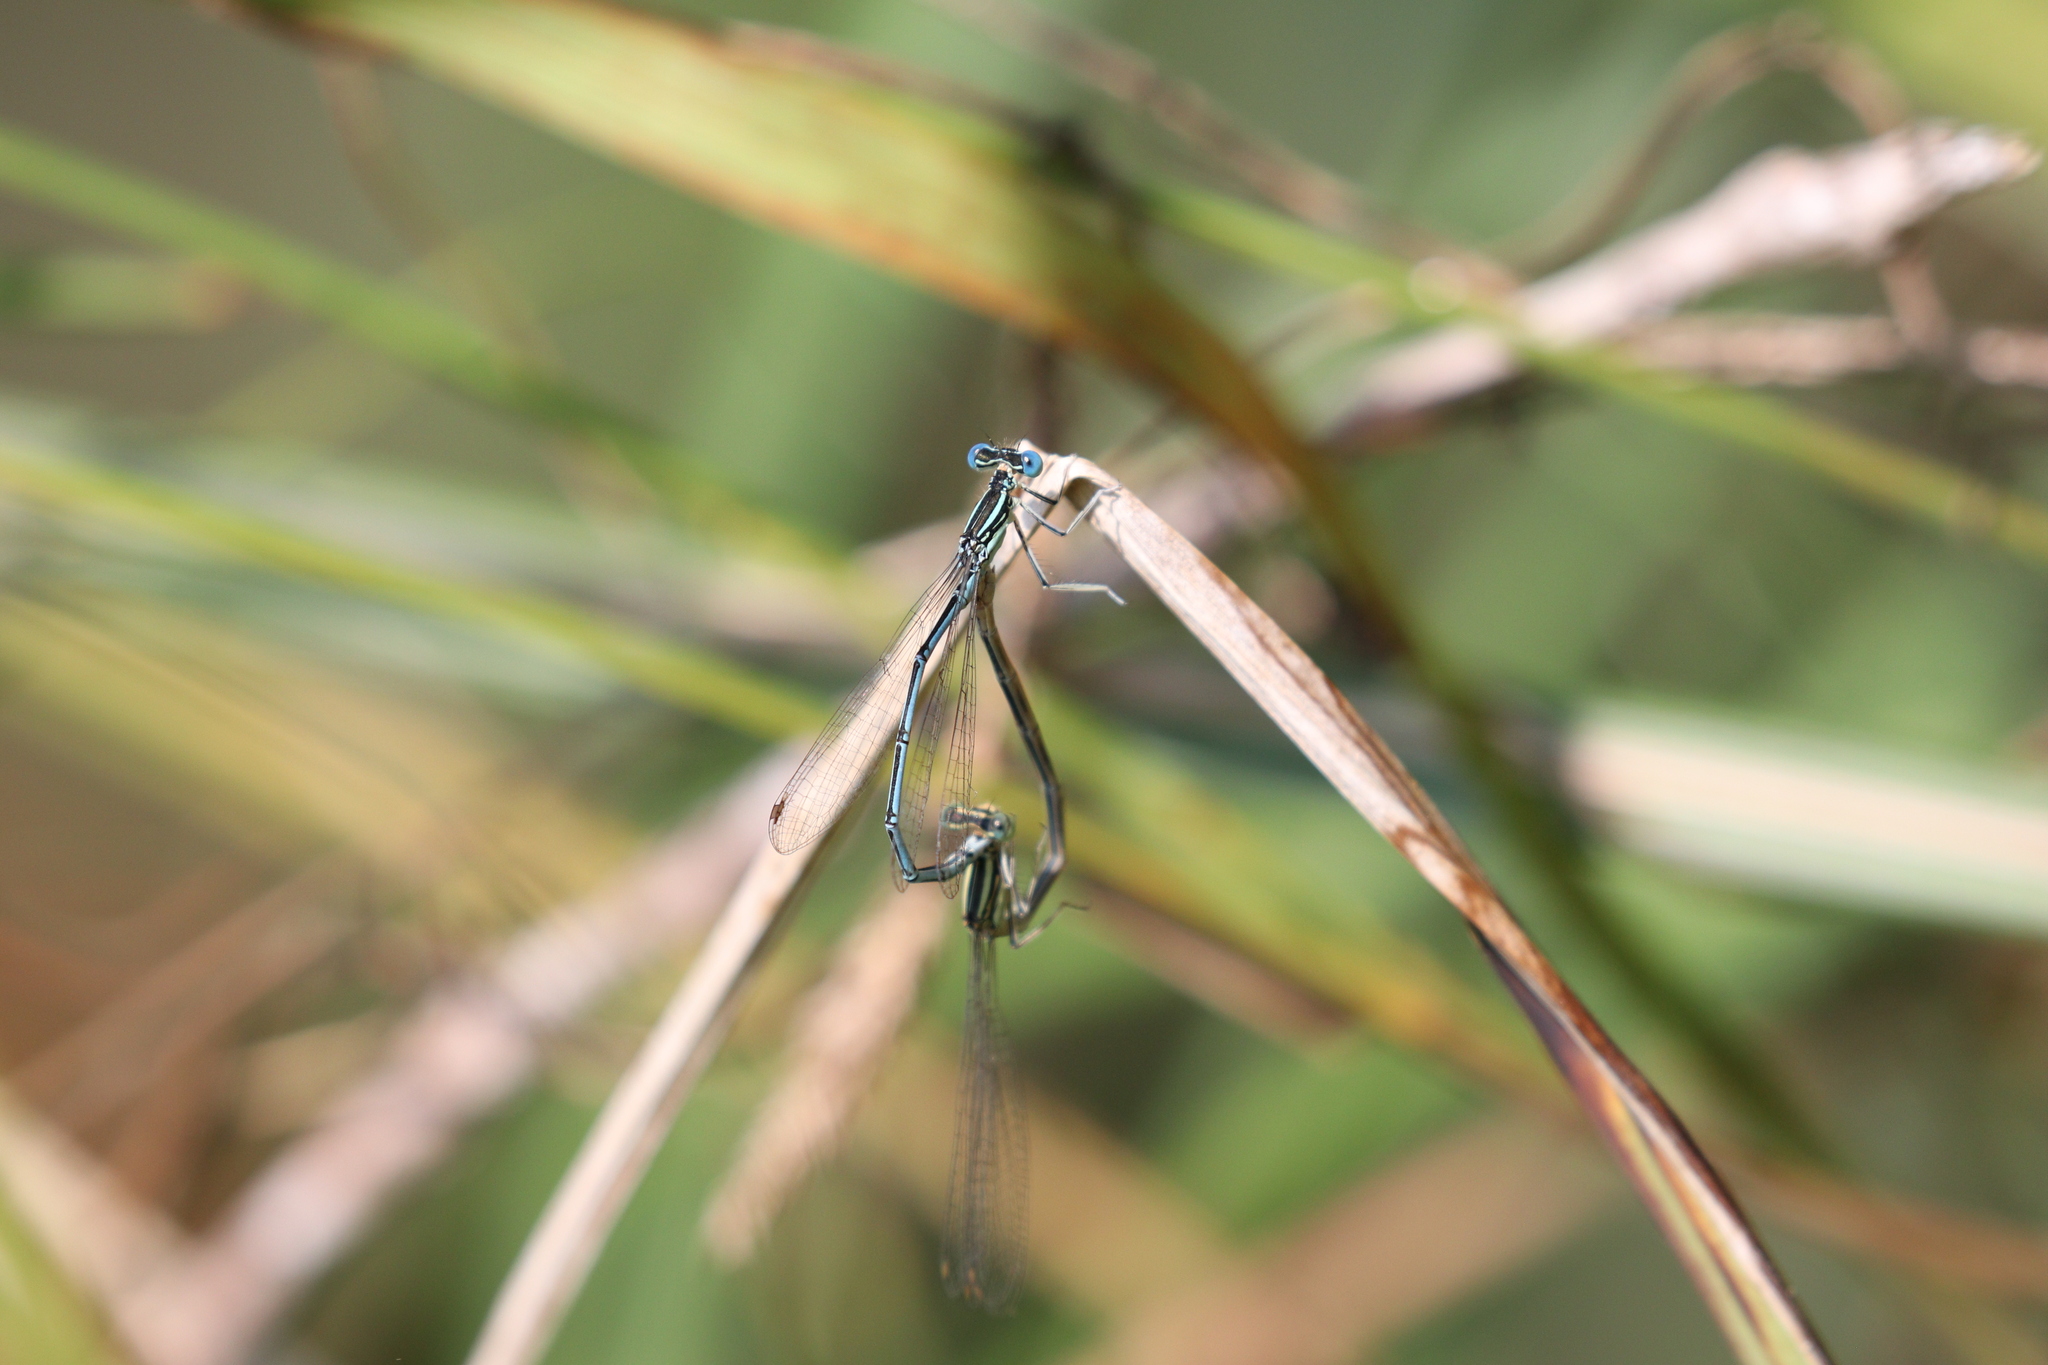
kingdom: Animalia
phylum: Arthropoda
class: Insecta
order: Odonata
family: Platycnemididae
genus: Platycnemis
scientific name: Platycnemis pennipes
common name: White-legged damselfly
